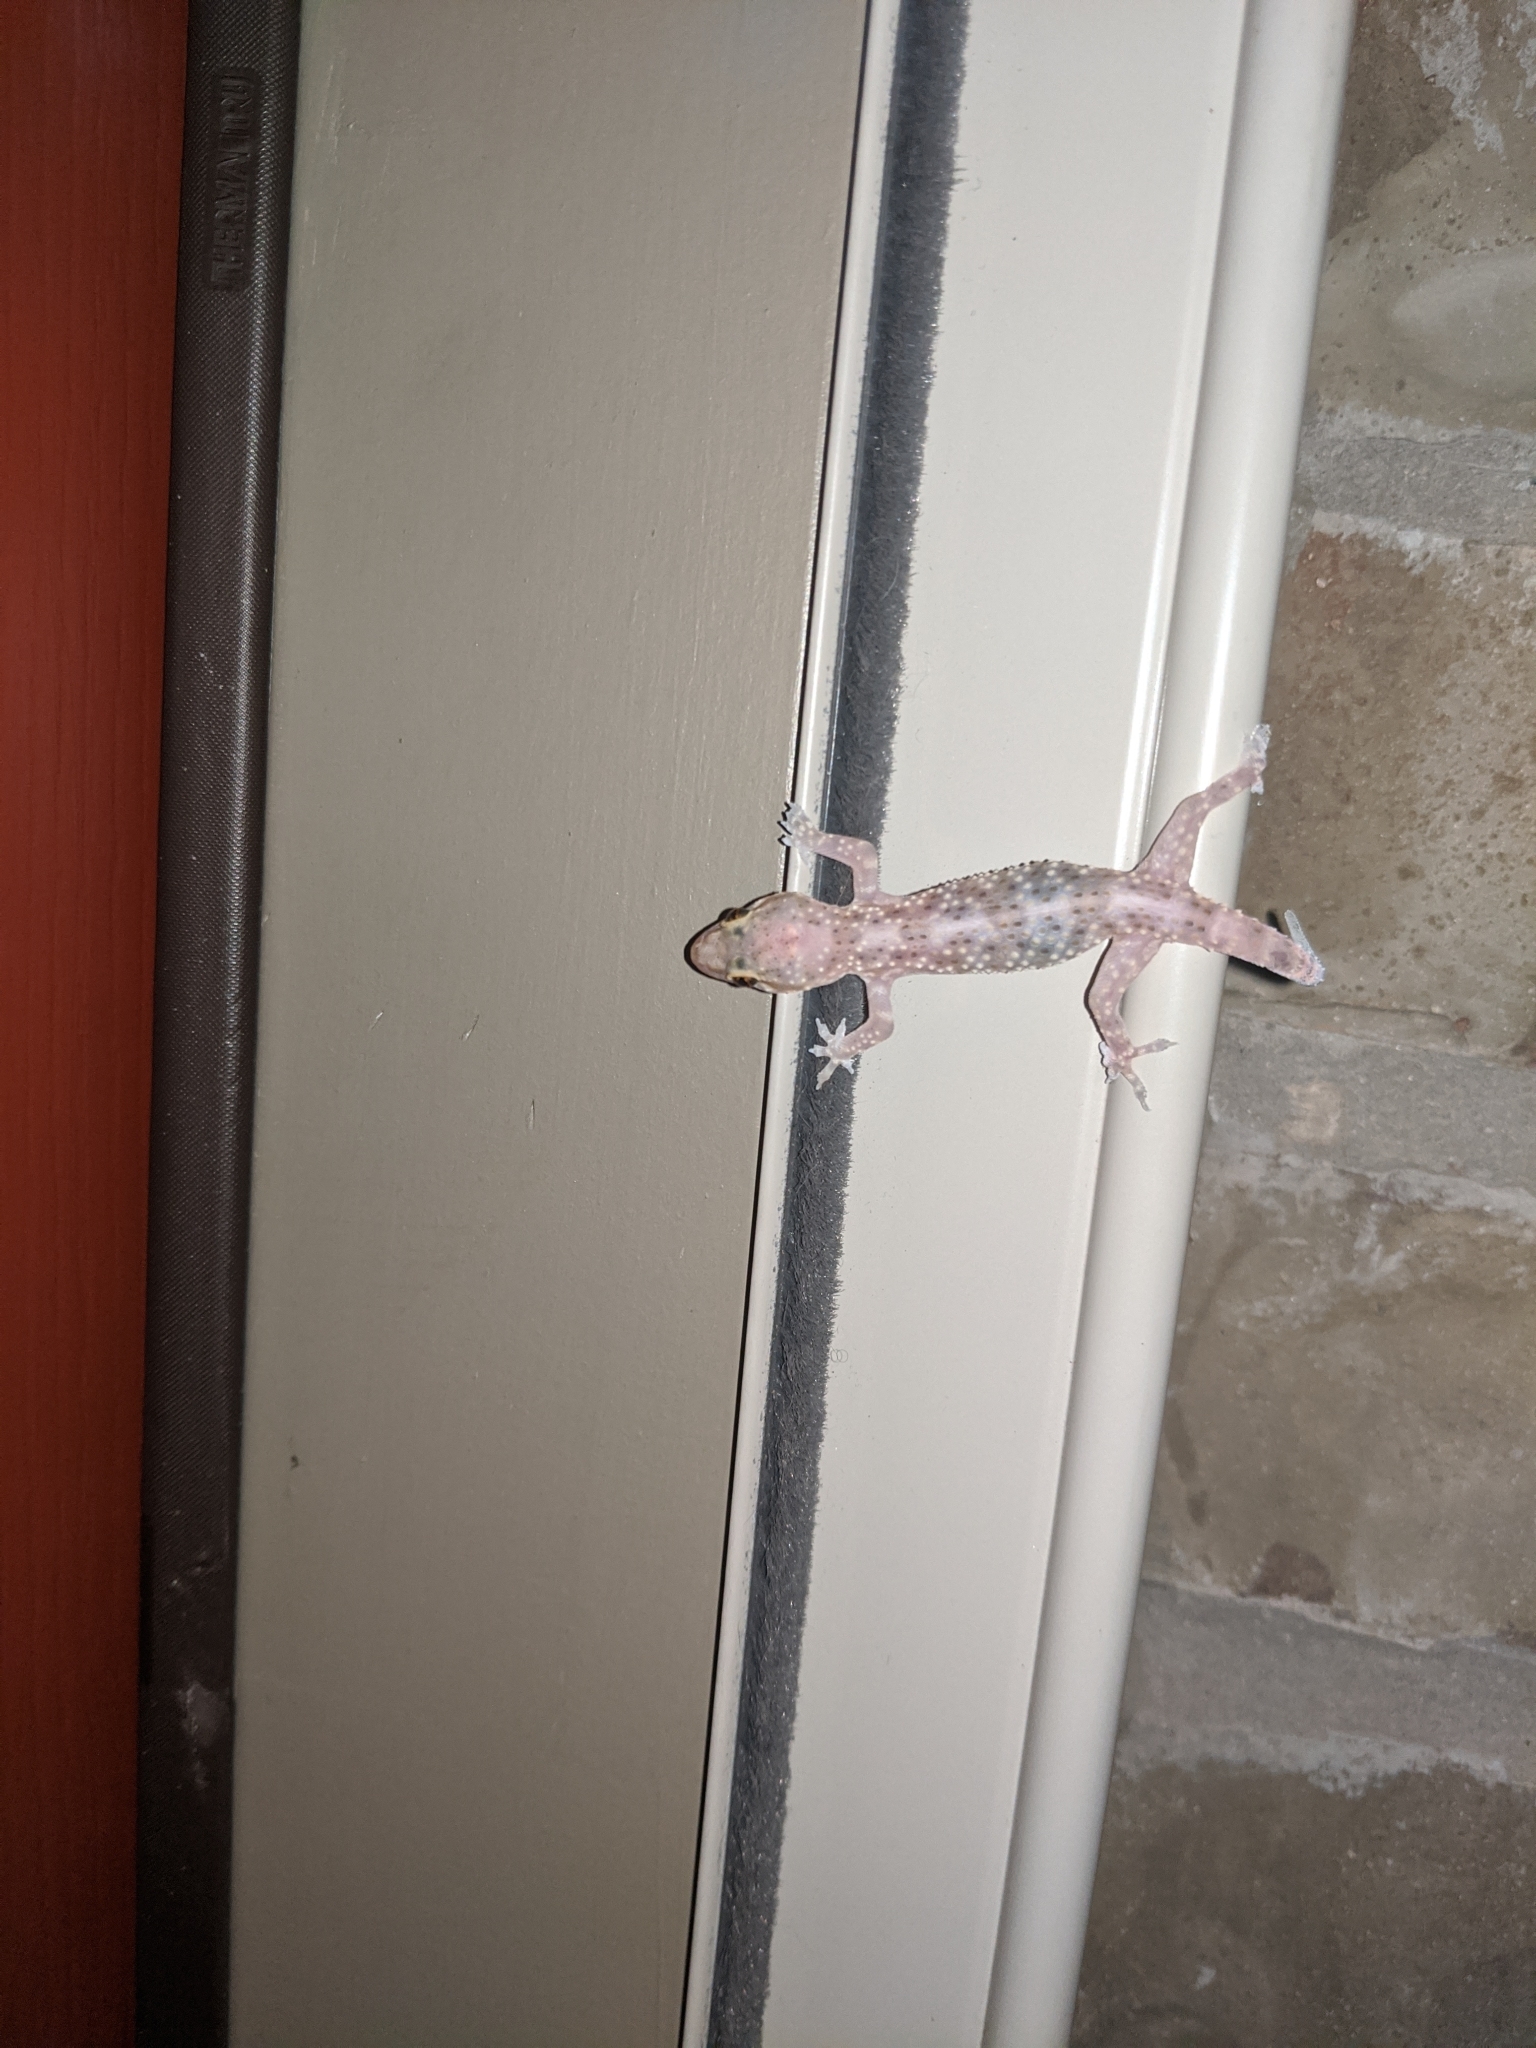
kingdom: Animalia
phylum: Chordata
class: Squamata
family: Gekkonidae
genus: Hemidactylus
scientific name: Hemidactylus turcicus
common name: Turkish gecko
